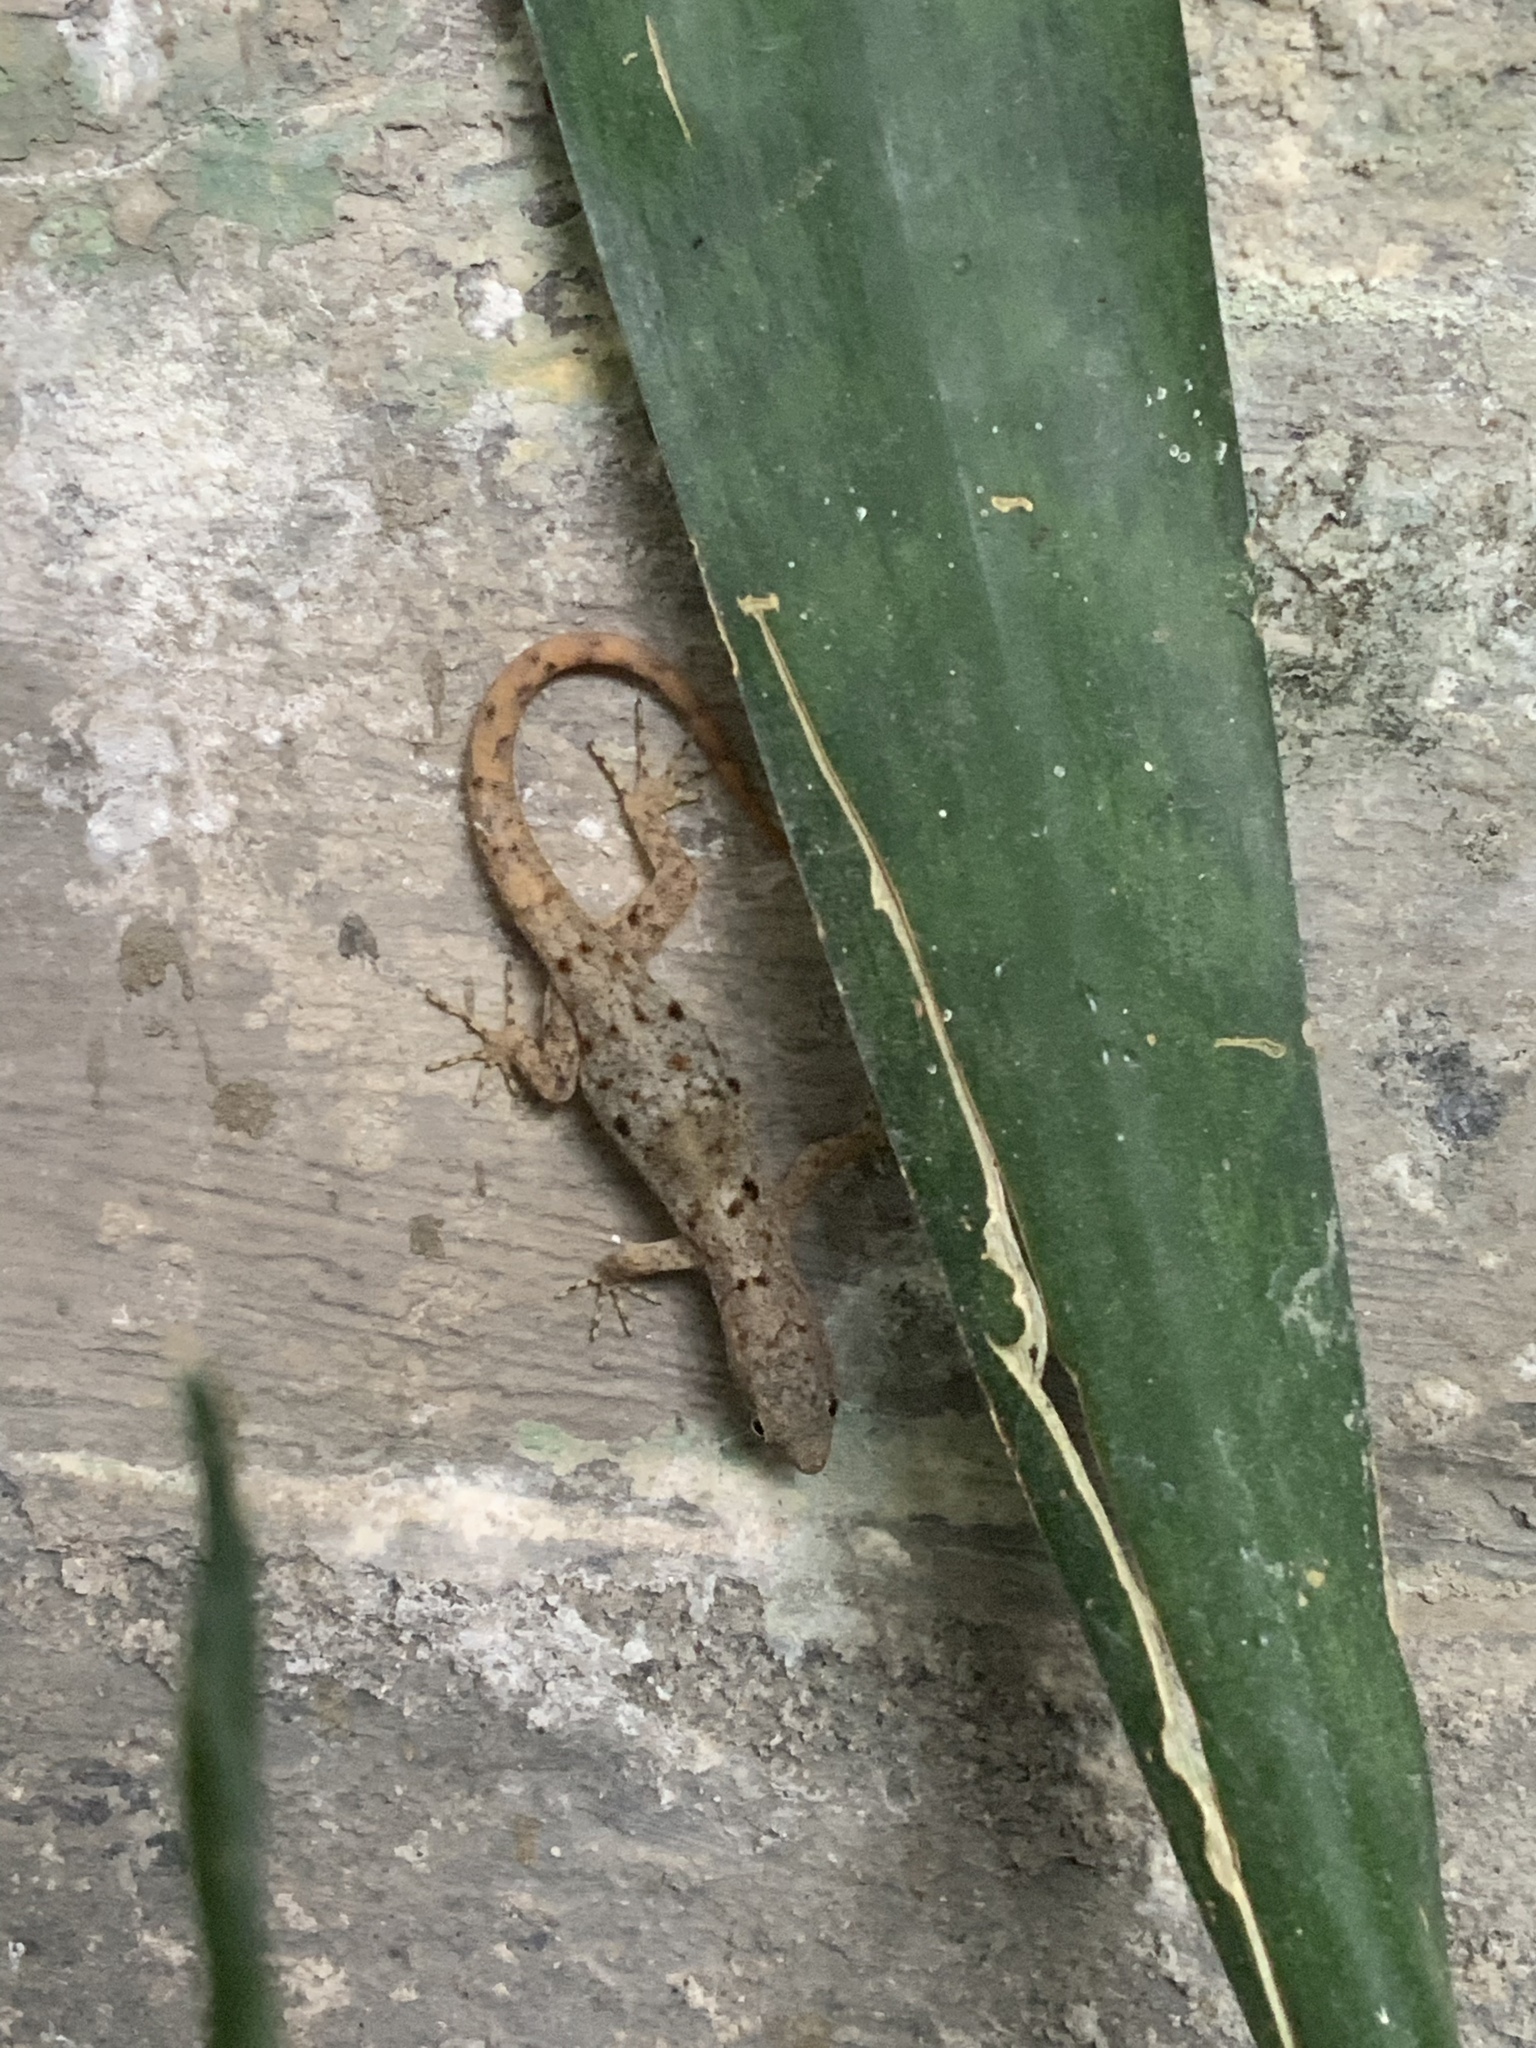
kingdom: Animalia
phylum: Chordata
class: Squamata
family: Sphaerodactylidae
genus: Gonatodes
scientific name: Gonatodes albogularis
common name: Yellow-headed gecko
